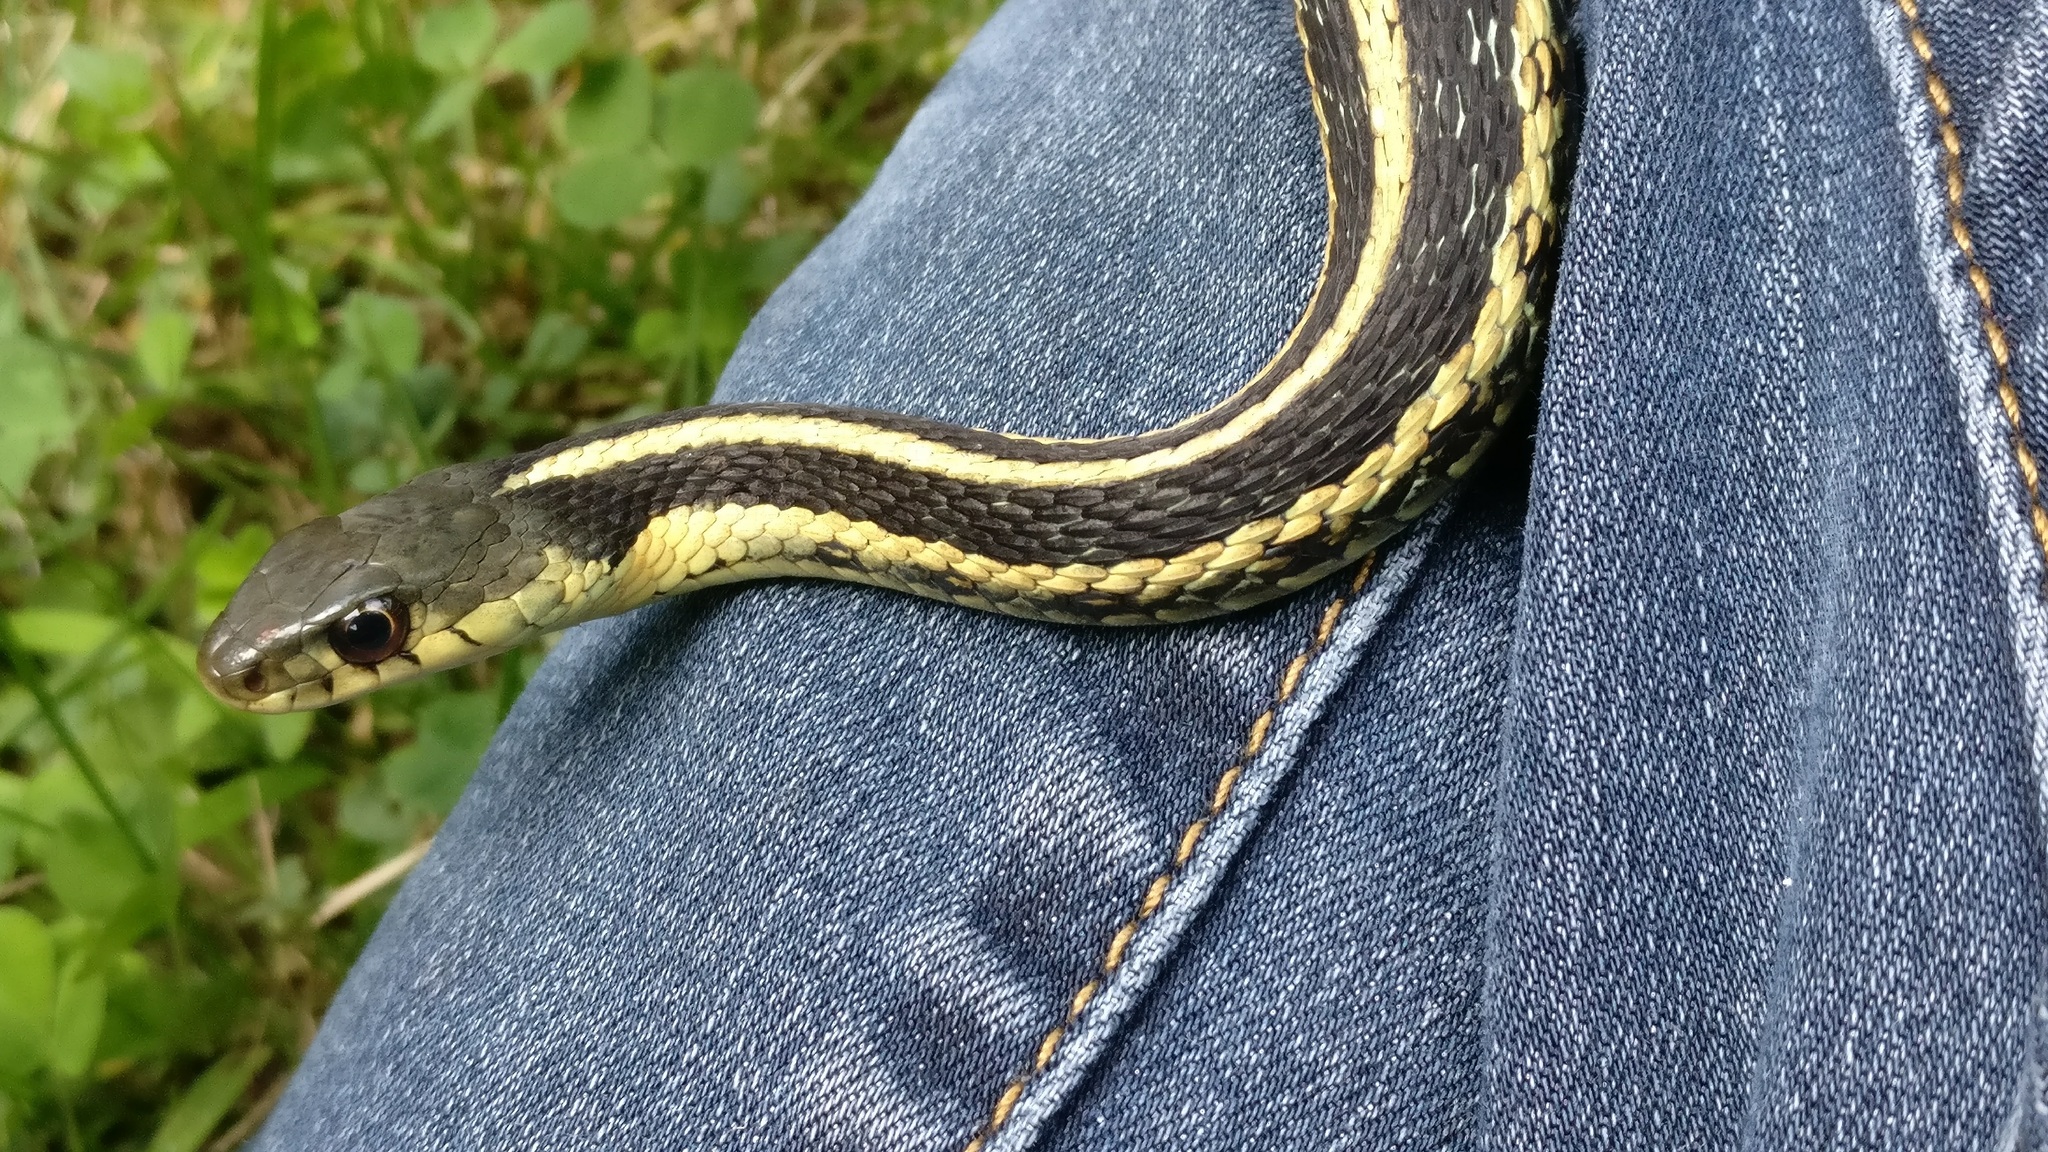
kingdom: Animalia
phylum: Chordata
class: Squamata
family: Colubridae
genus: Thamnophis
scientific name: Thamnophis sirtalis
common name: Common garter snake
